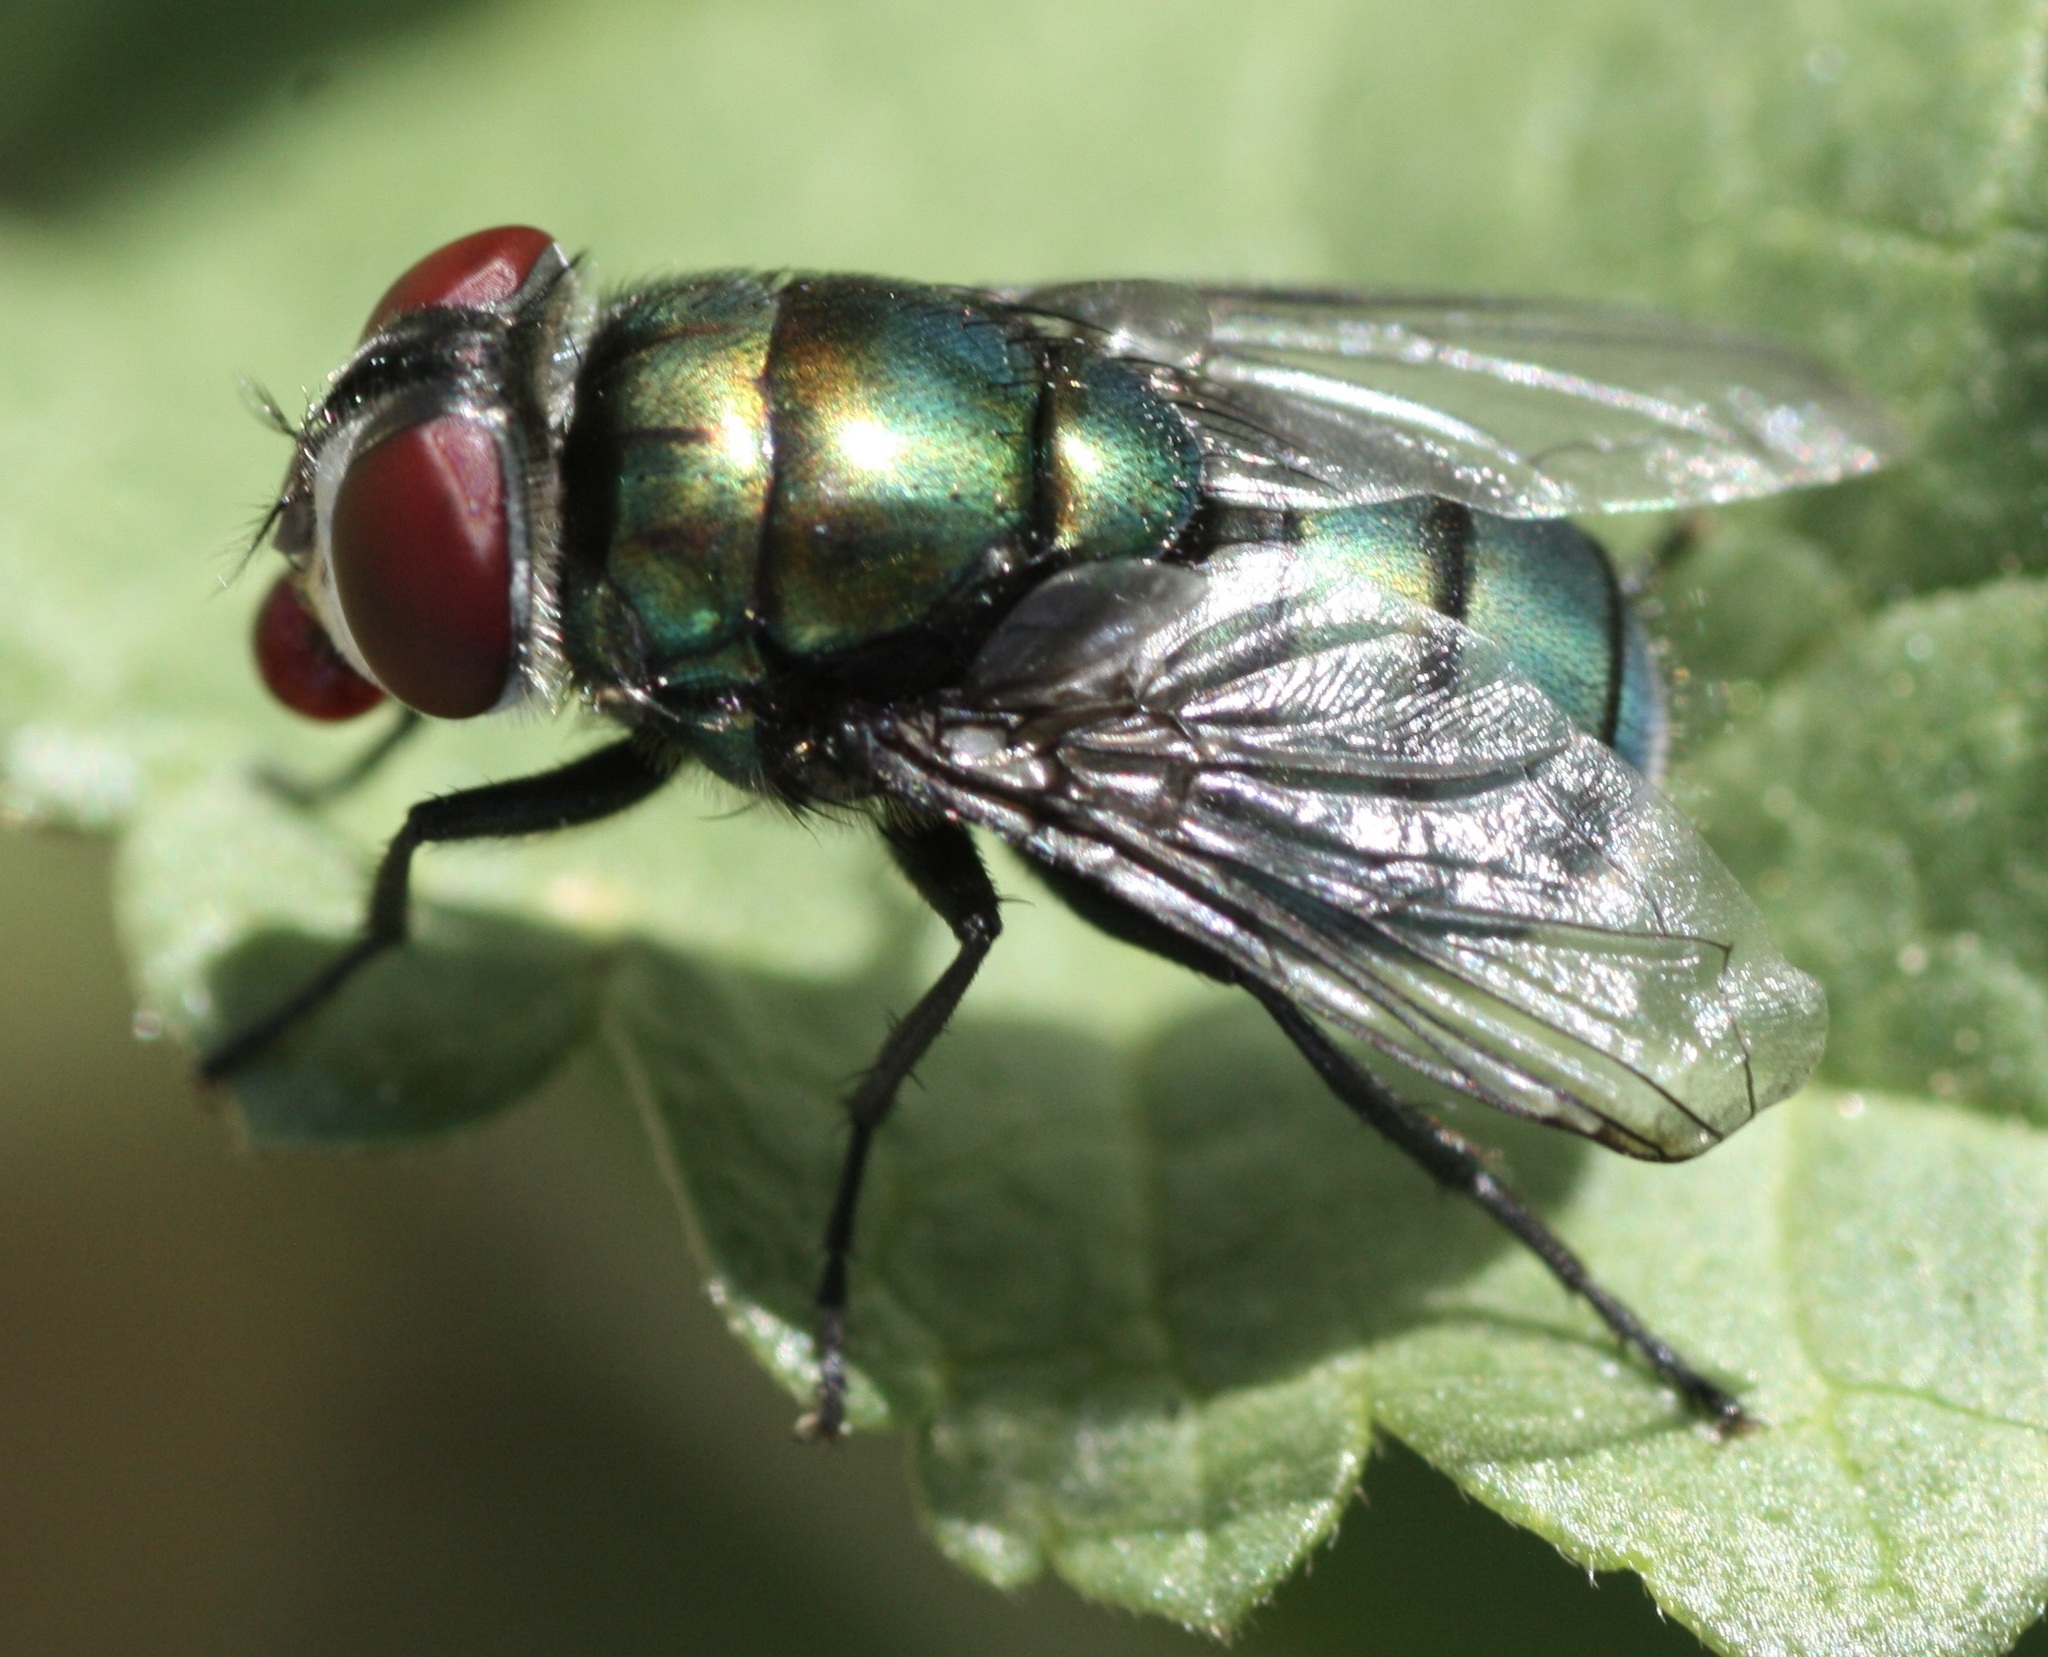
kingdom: Animalia
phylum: Arthropoda
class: Insecta
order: Diptera
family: Calliphoridae
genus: Chrysomya
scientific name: Chrysomya rufifacies
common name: Blow fly
